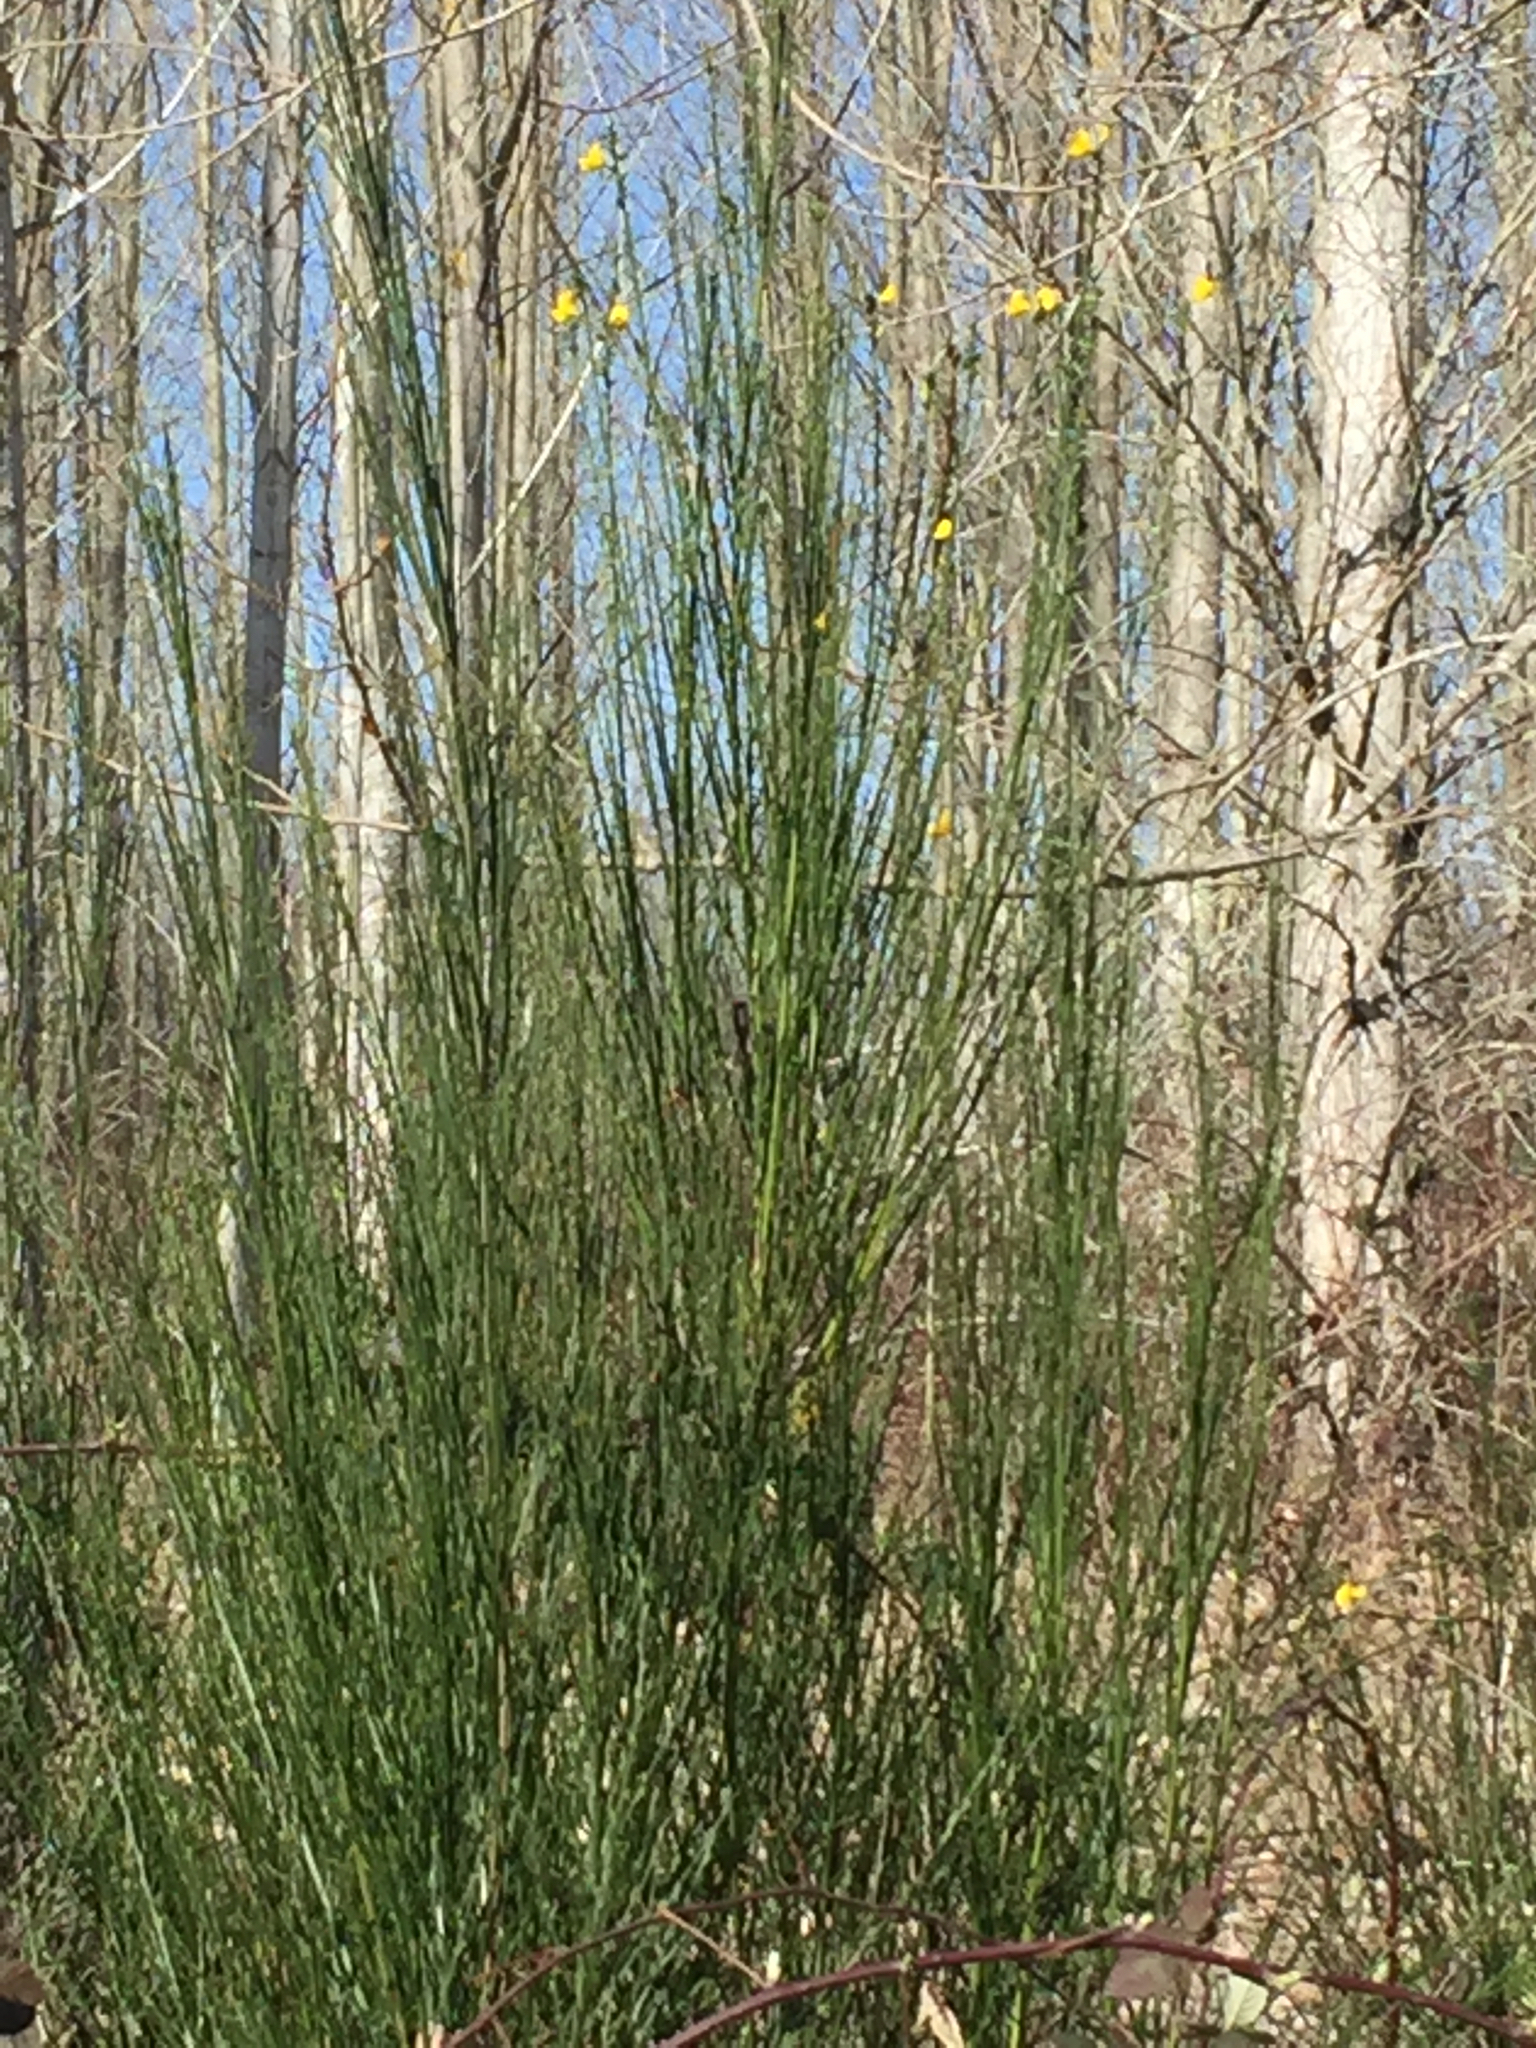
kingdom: Plantae
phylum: Tracheophyta
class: Magnoliopsida
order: Fabales
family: Fabaceae
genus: Cytisus
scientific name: Cytisus scoparius
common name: Scotch broom
